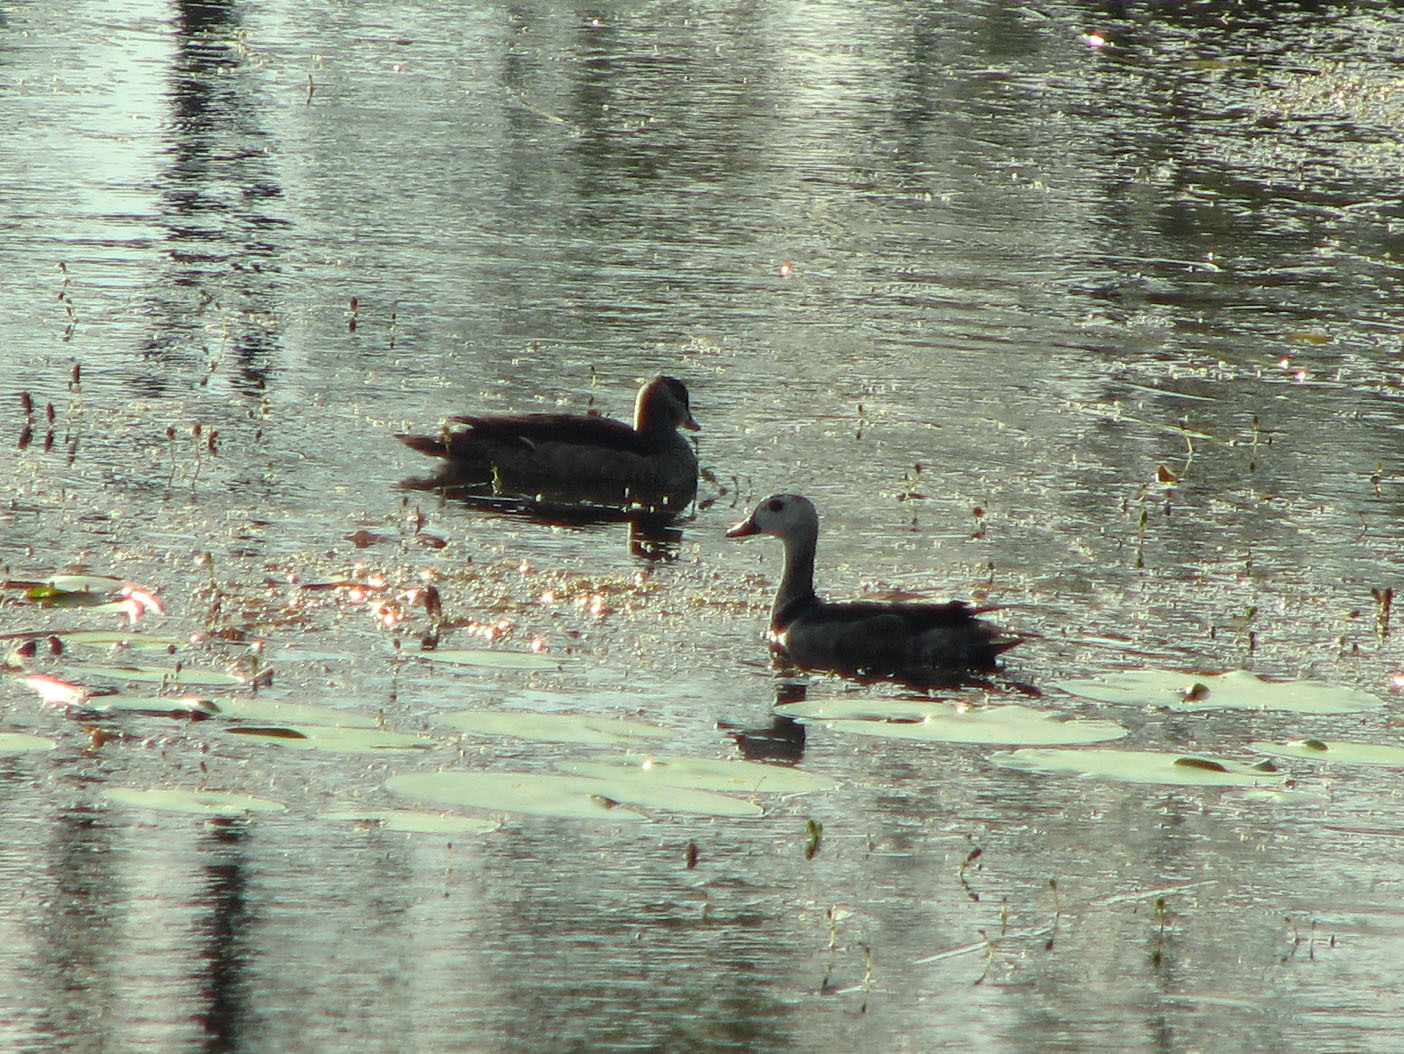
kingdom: Animalia
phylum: Chordata
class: Aves
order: Anseriformes
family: Anatidae
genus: Nettapus
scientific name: Nettapus coromandelianus
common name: Cotton pygmy-goose
